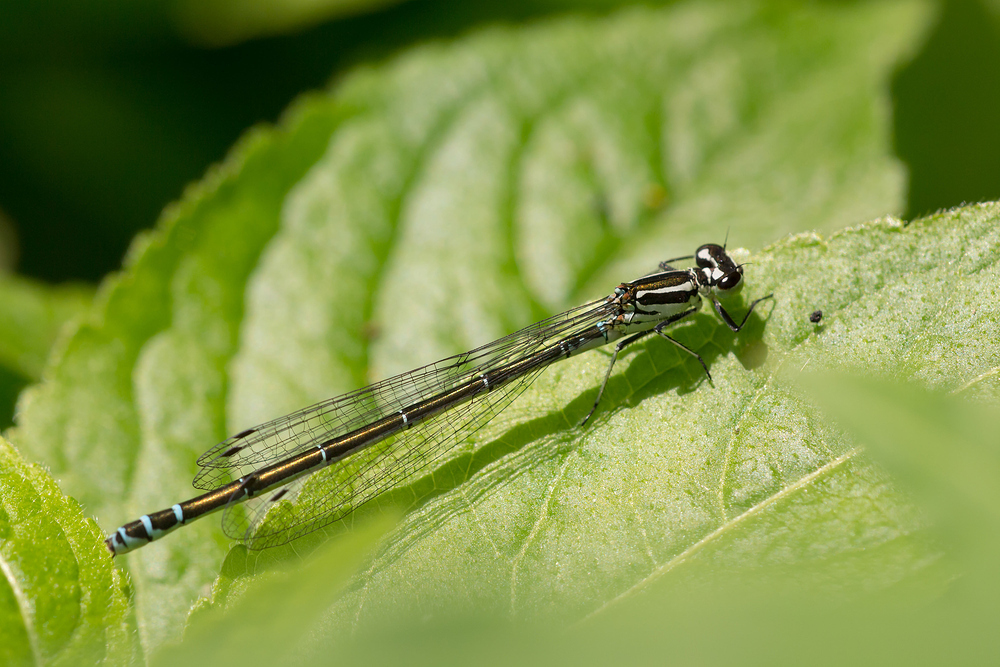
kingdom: Animalia
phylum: Arthropoda
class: Insecta
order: Odonata
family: Coenagrionidae
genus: Coenagrion
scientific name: Coenagrion puella
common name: Azure damselfly
